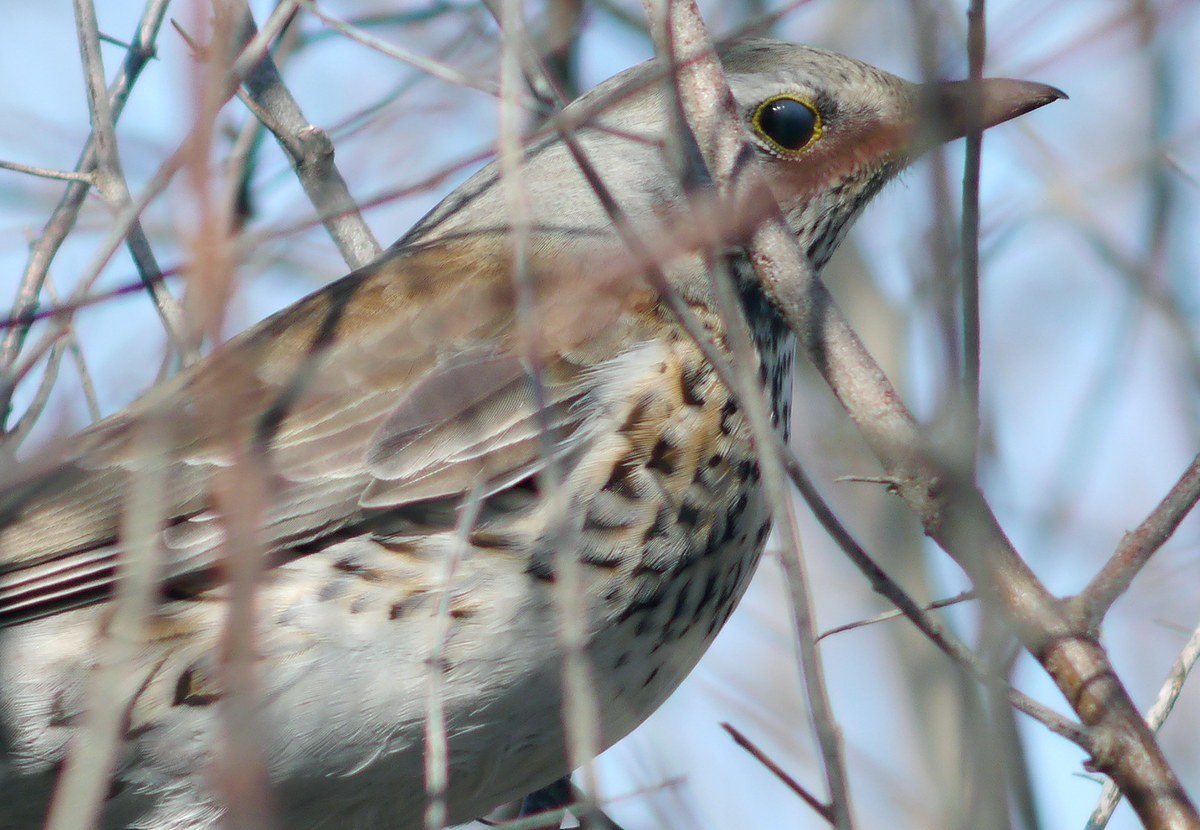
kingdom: Animalia
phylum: Chordata
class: Aves
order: Passeriformes
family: Turdidae
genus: Turdus
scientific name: Turdus pilaris
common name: Fieldfare
